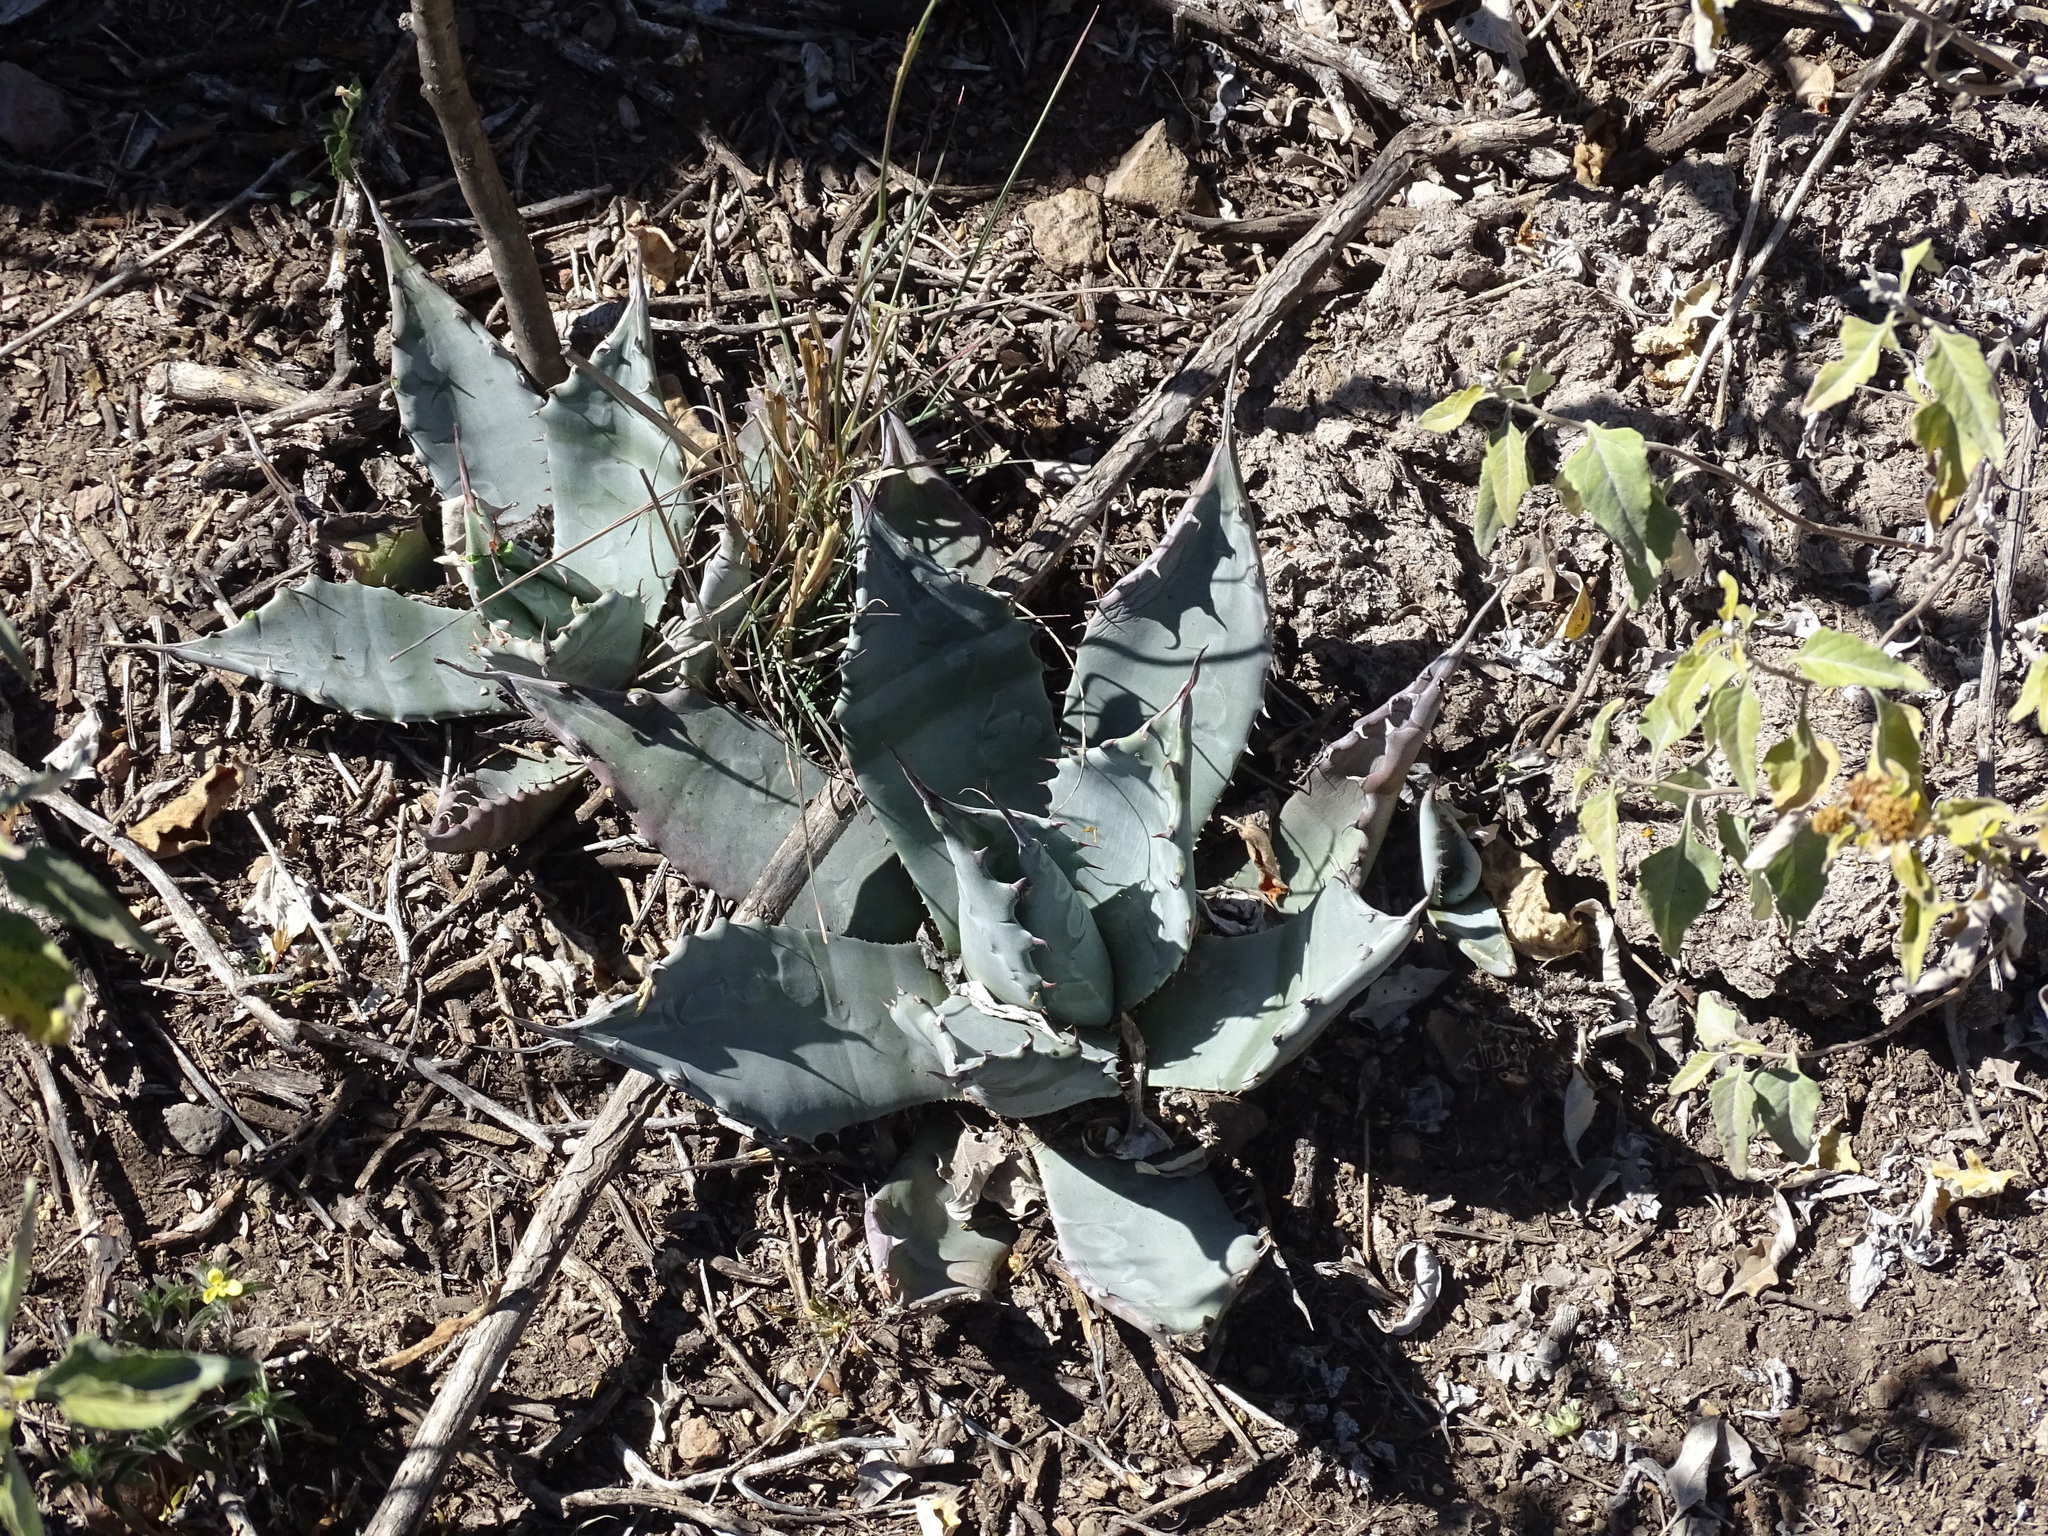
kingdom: Plantae
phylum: Tracheophyta
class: Liliopsida
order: Asparagales
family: Asparagaceae
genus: Agave
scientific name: Agave applanata
